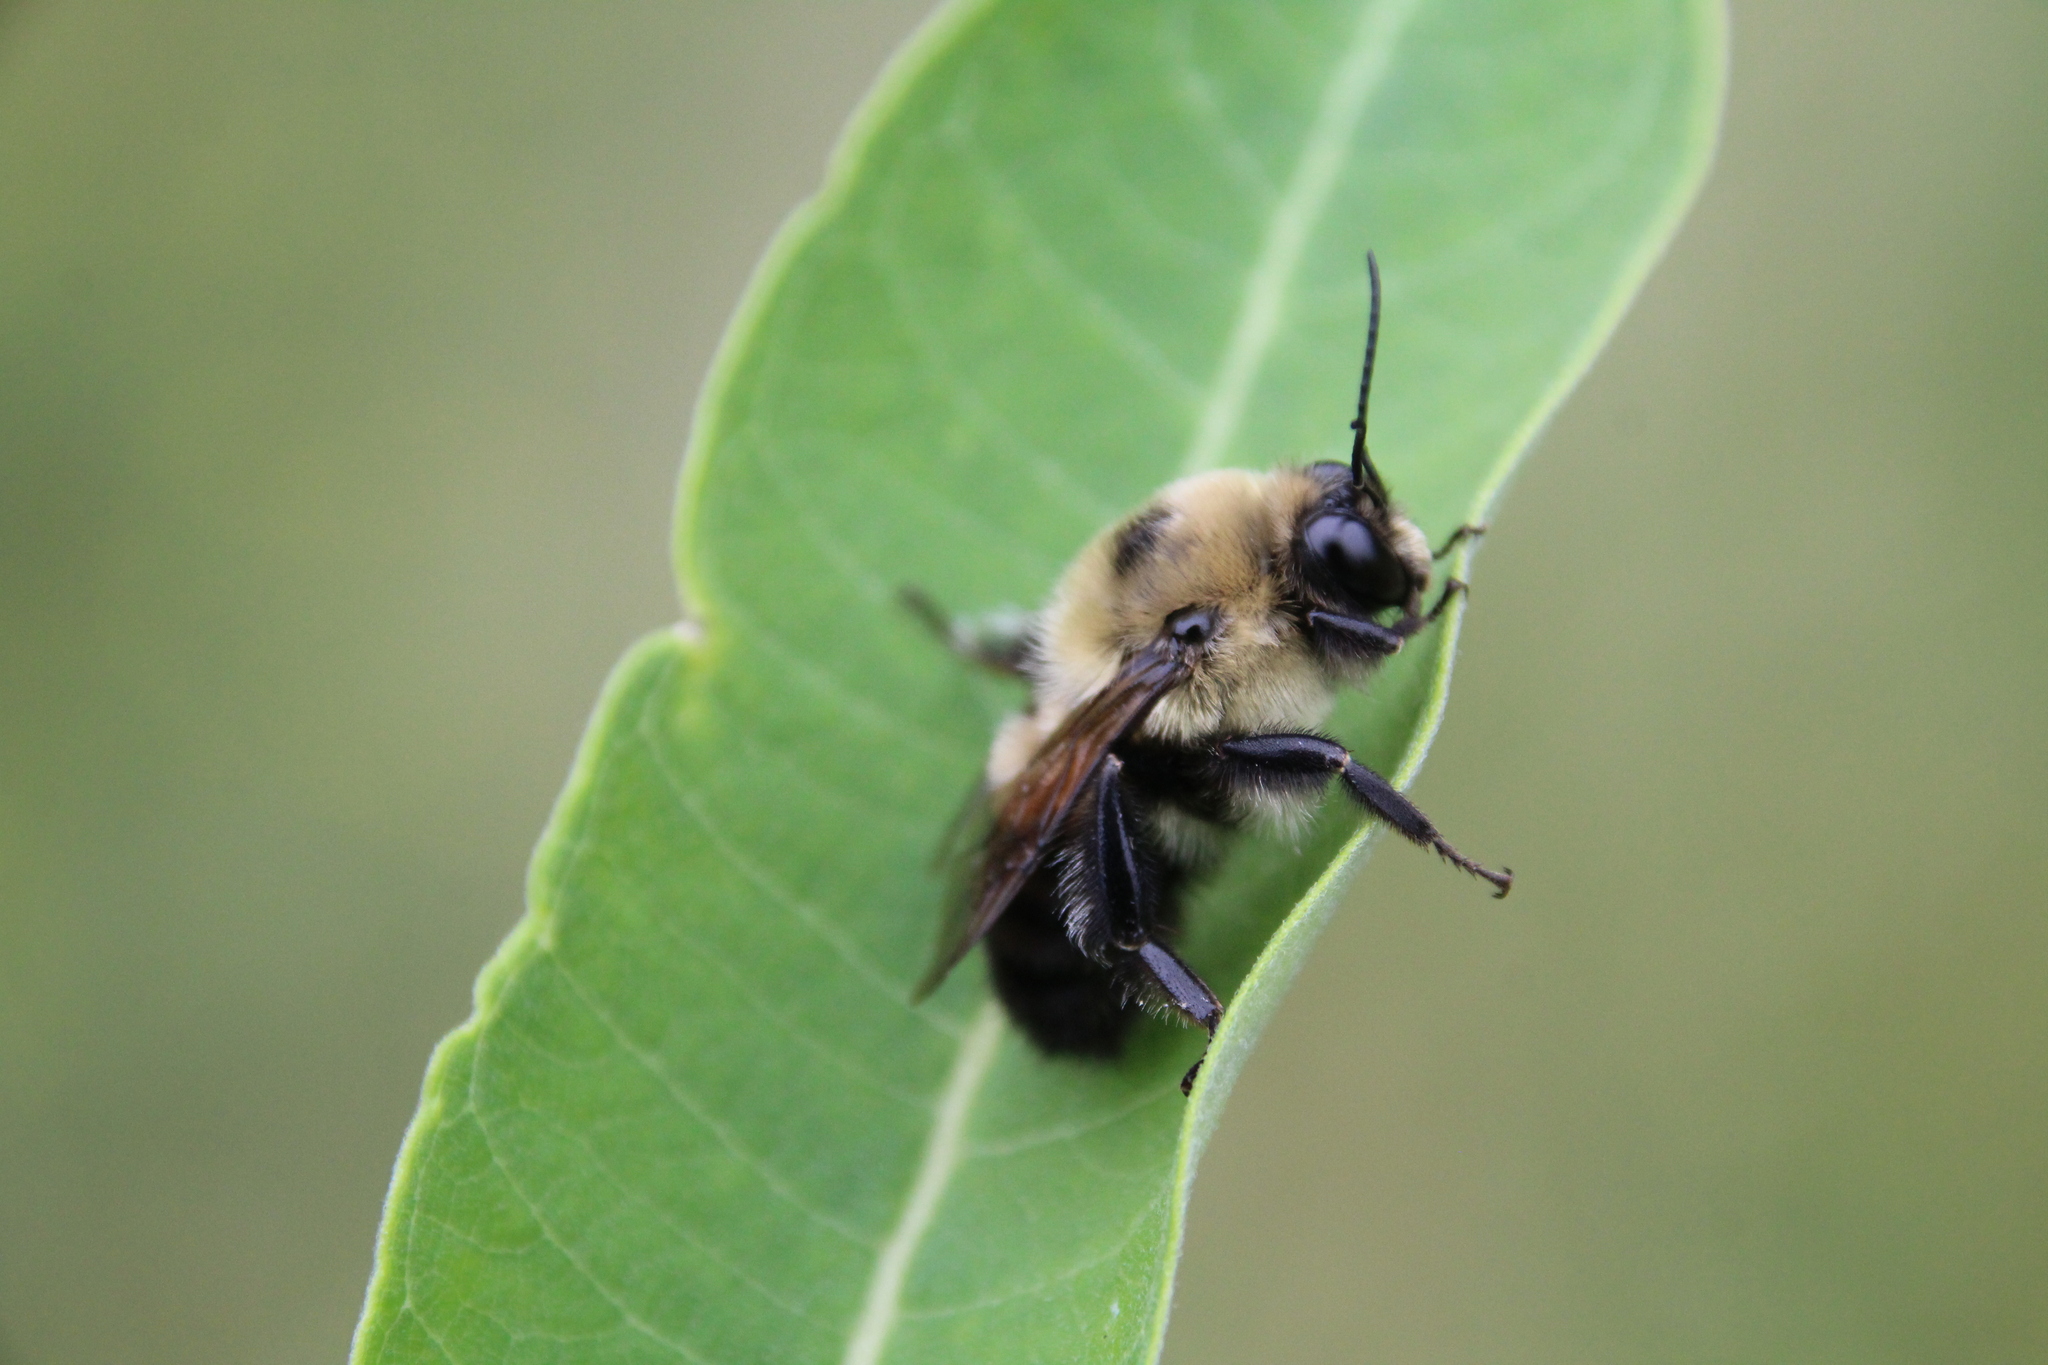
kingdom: Animalia
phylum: Arthropoda
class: Insecta
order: Hymenoptera
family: Apidae
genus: Bombus
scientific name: Bombus griseocollis
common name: Brown-belted bumble bee
